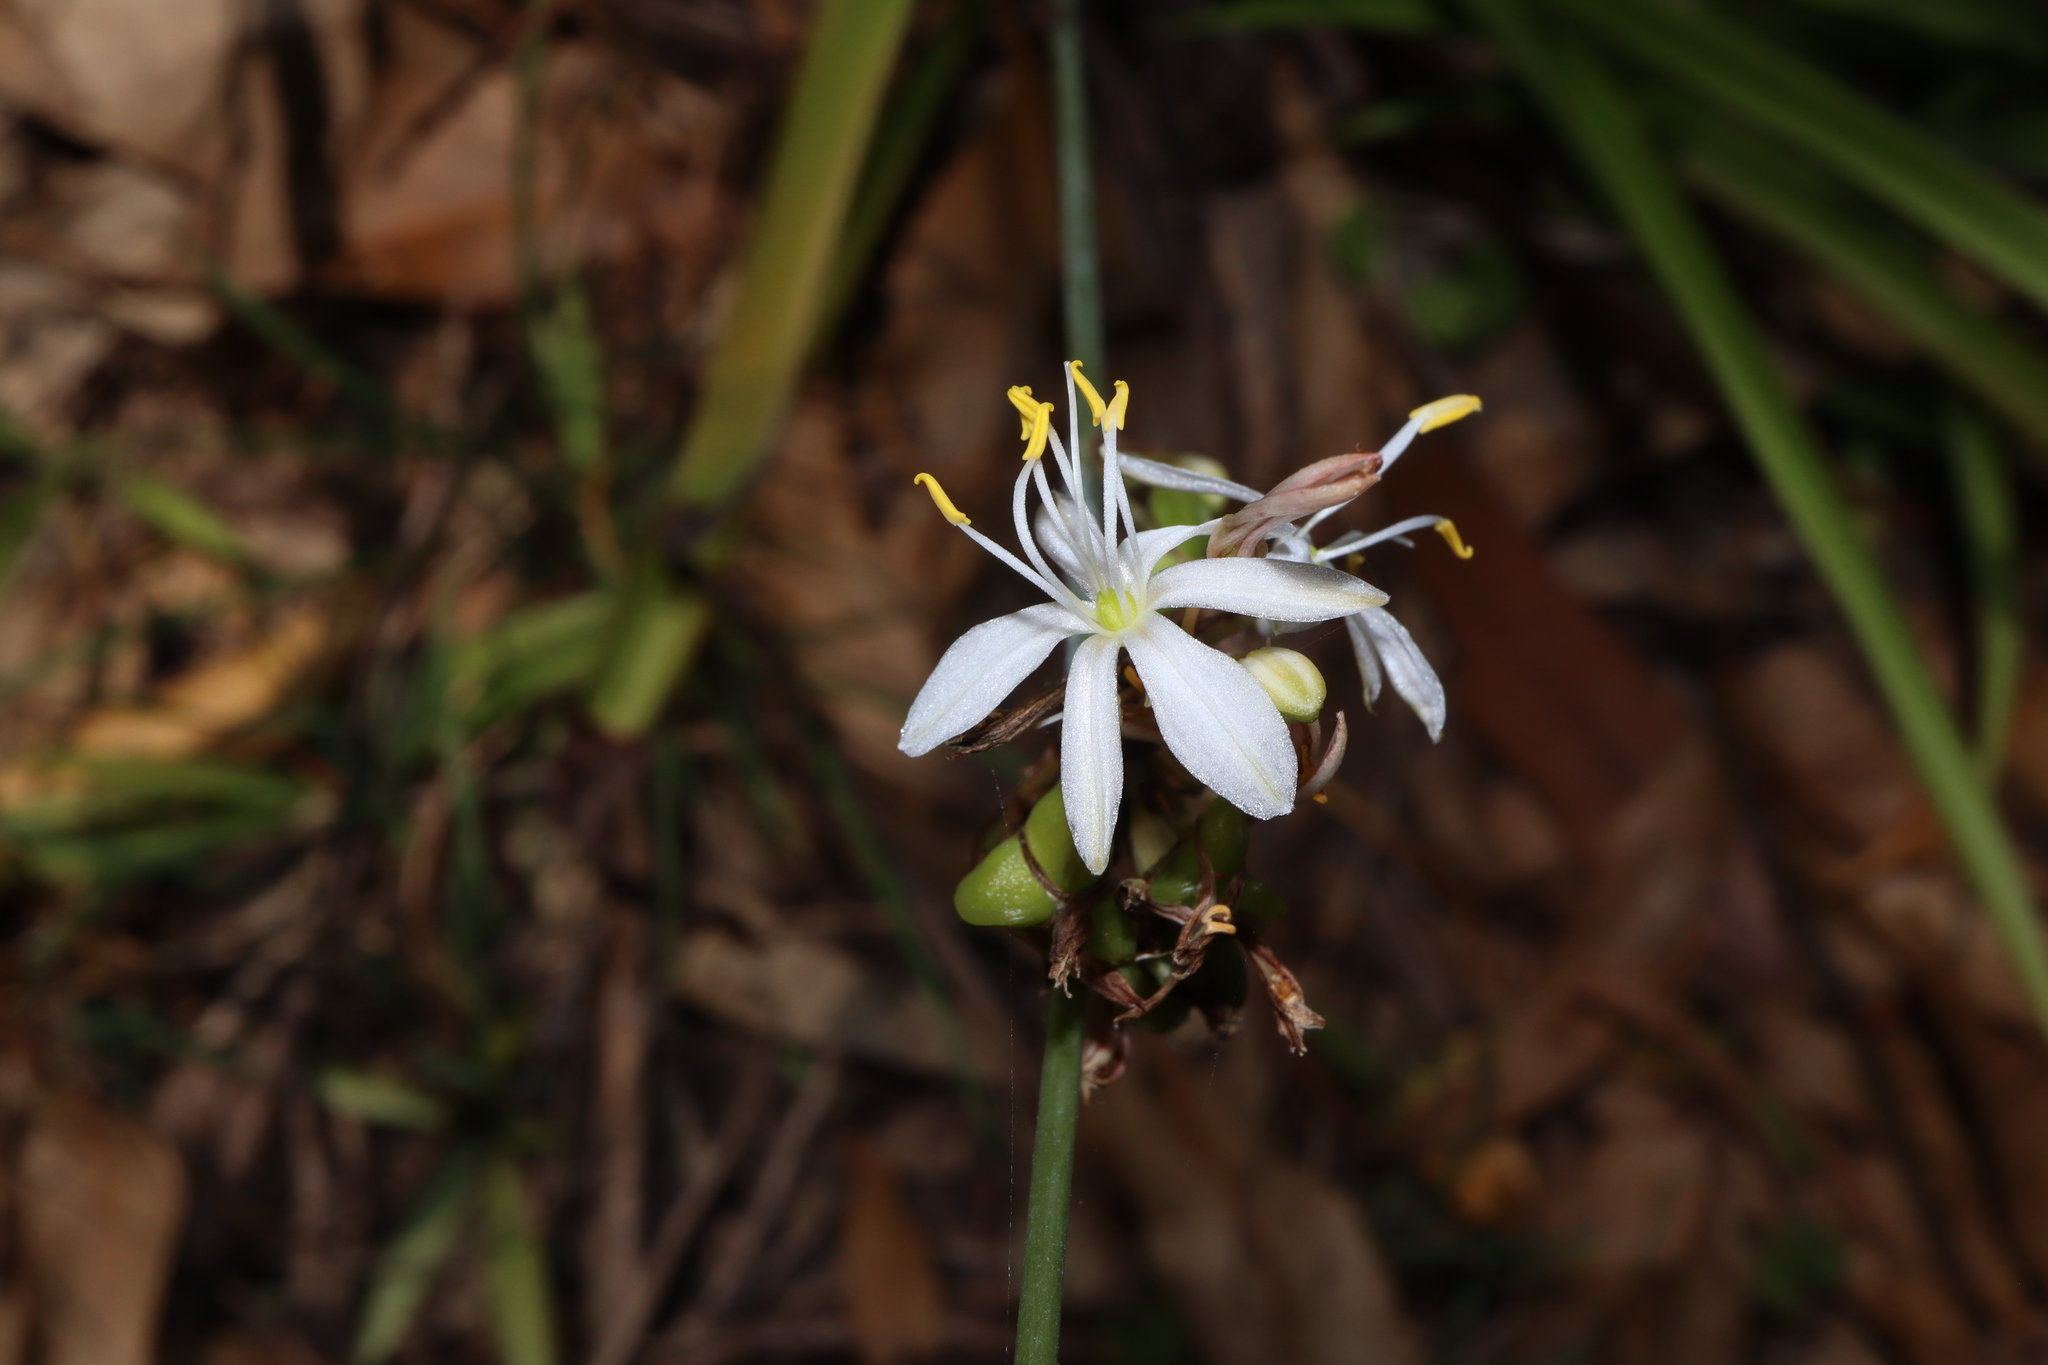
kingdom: Plantae
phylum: Tracheophyta
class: Liliopsida
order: Asparagales
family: Asparagaceae
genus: Chlorophytum
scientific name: Chlorophytum comosum
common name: Spider plant
